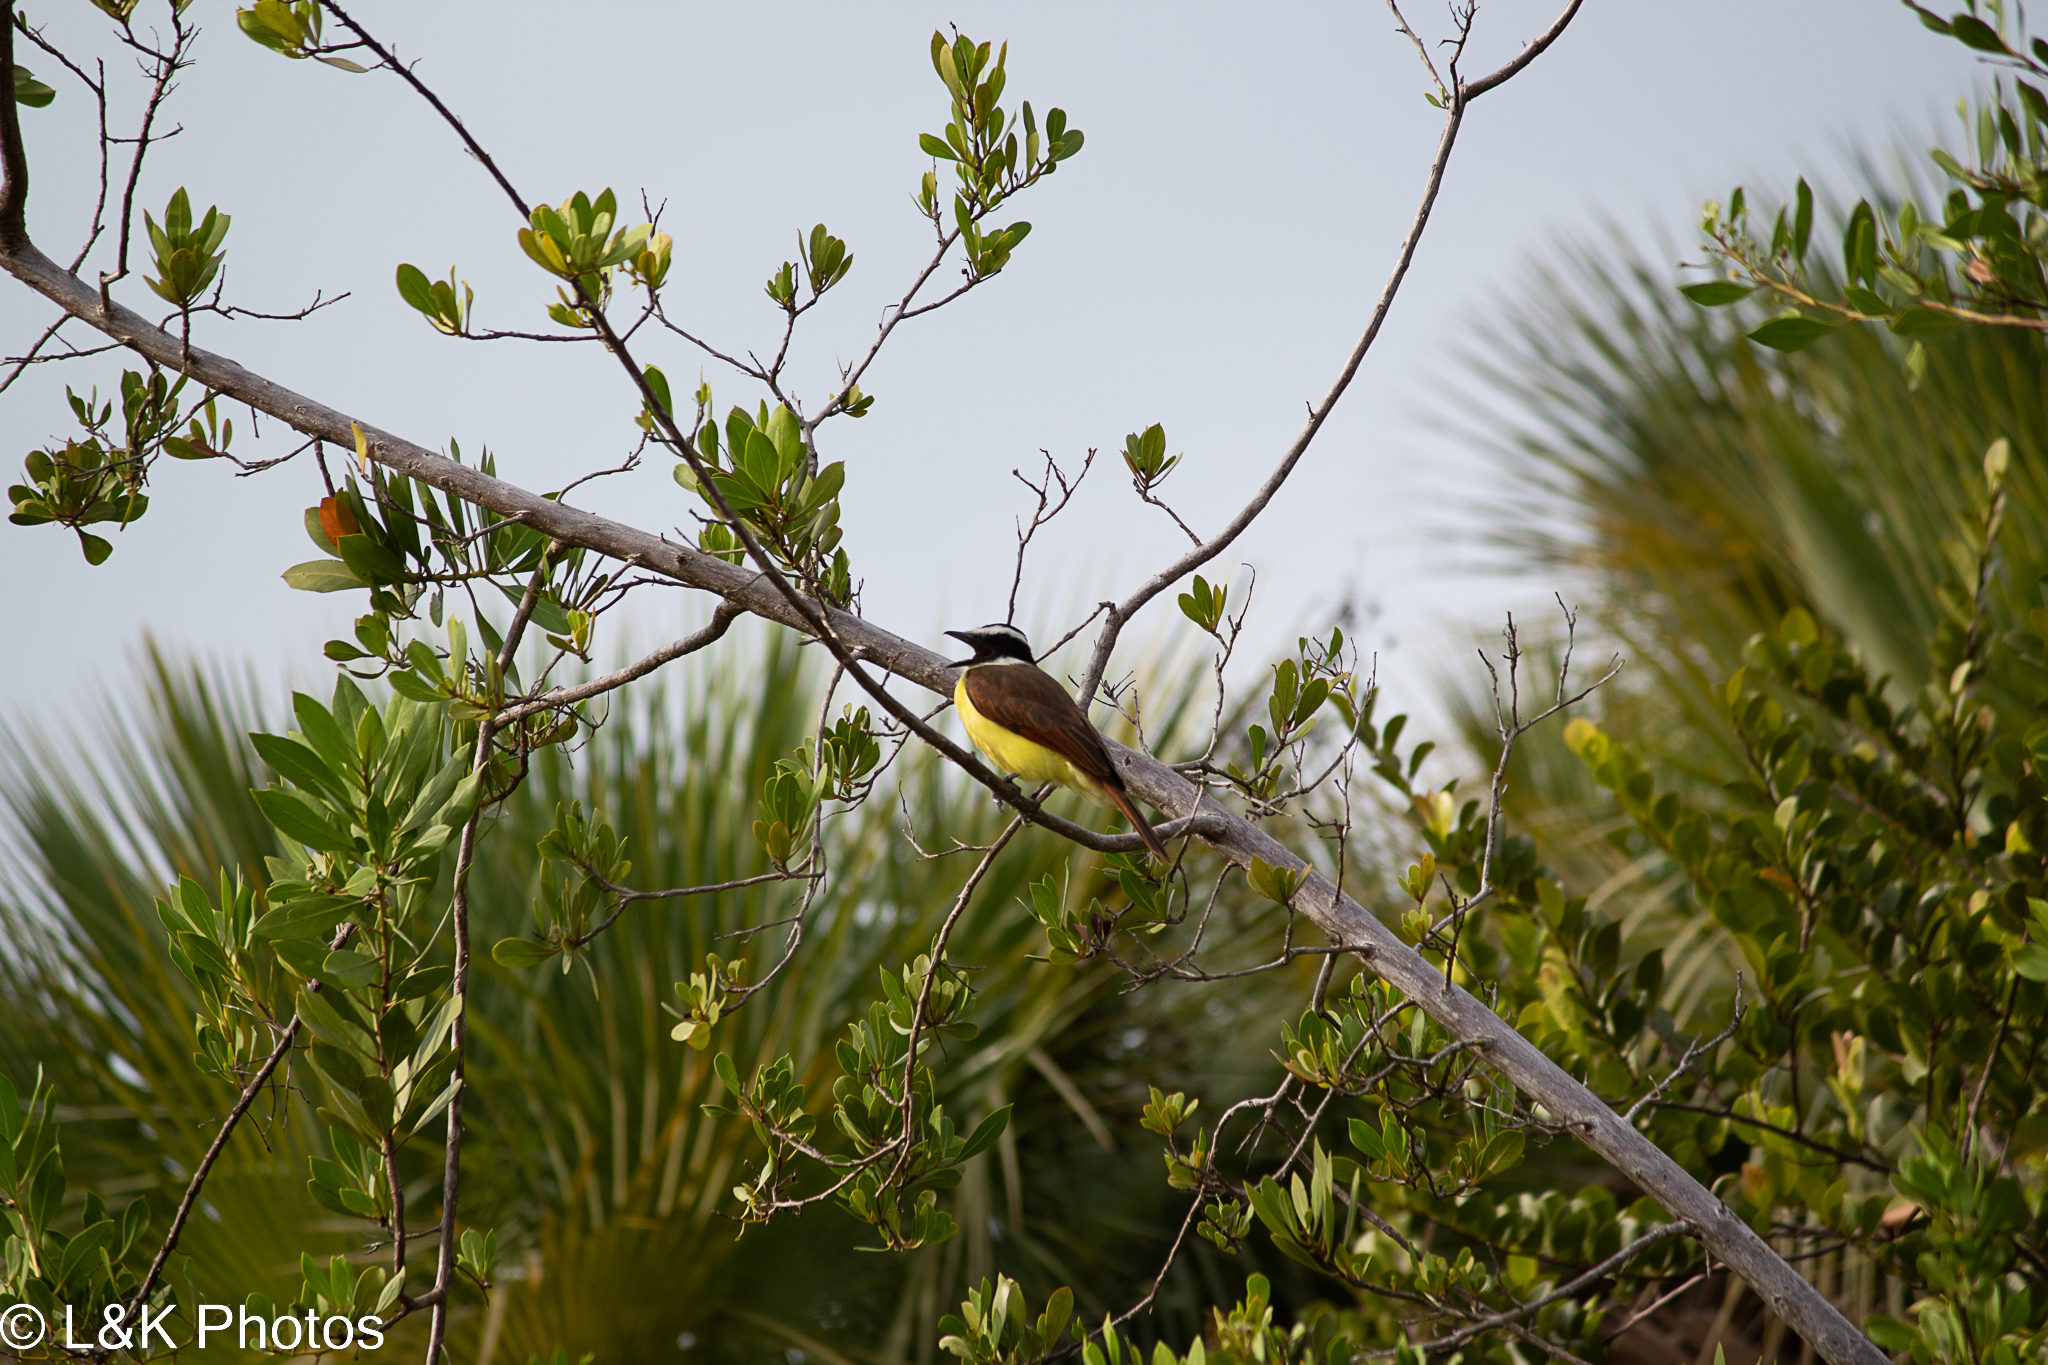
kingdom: Animalia
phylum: Chordata
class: Aves
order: Passeriformes
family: Tyrannidae
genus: Pitangus
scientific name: Pitangus sulphuratus
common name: Great kiskadee
